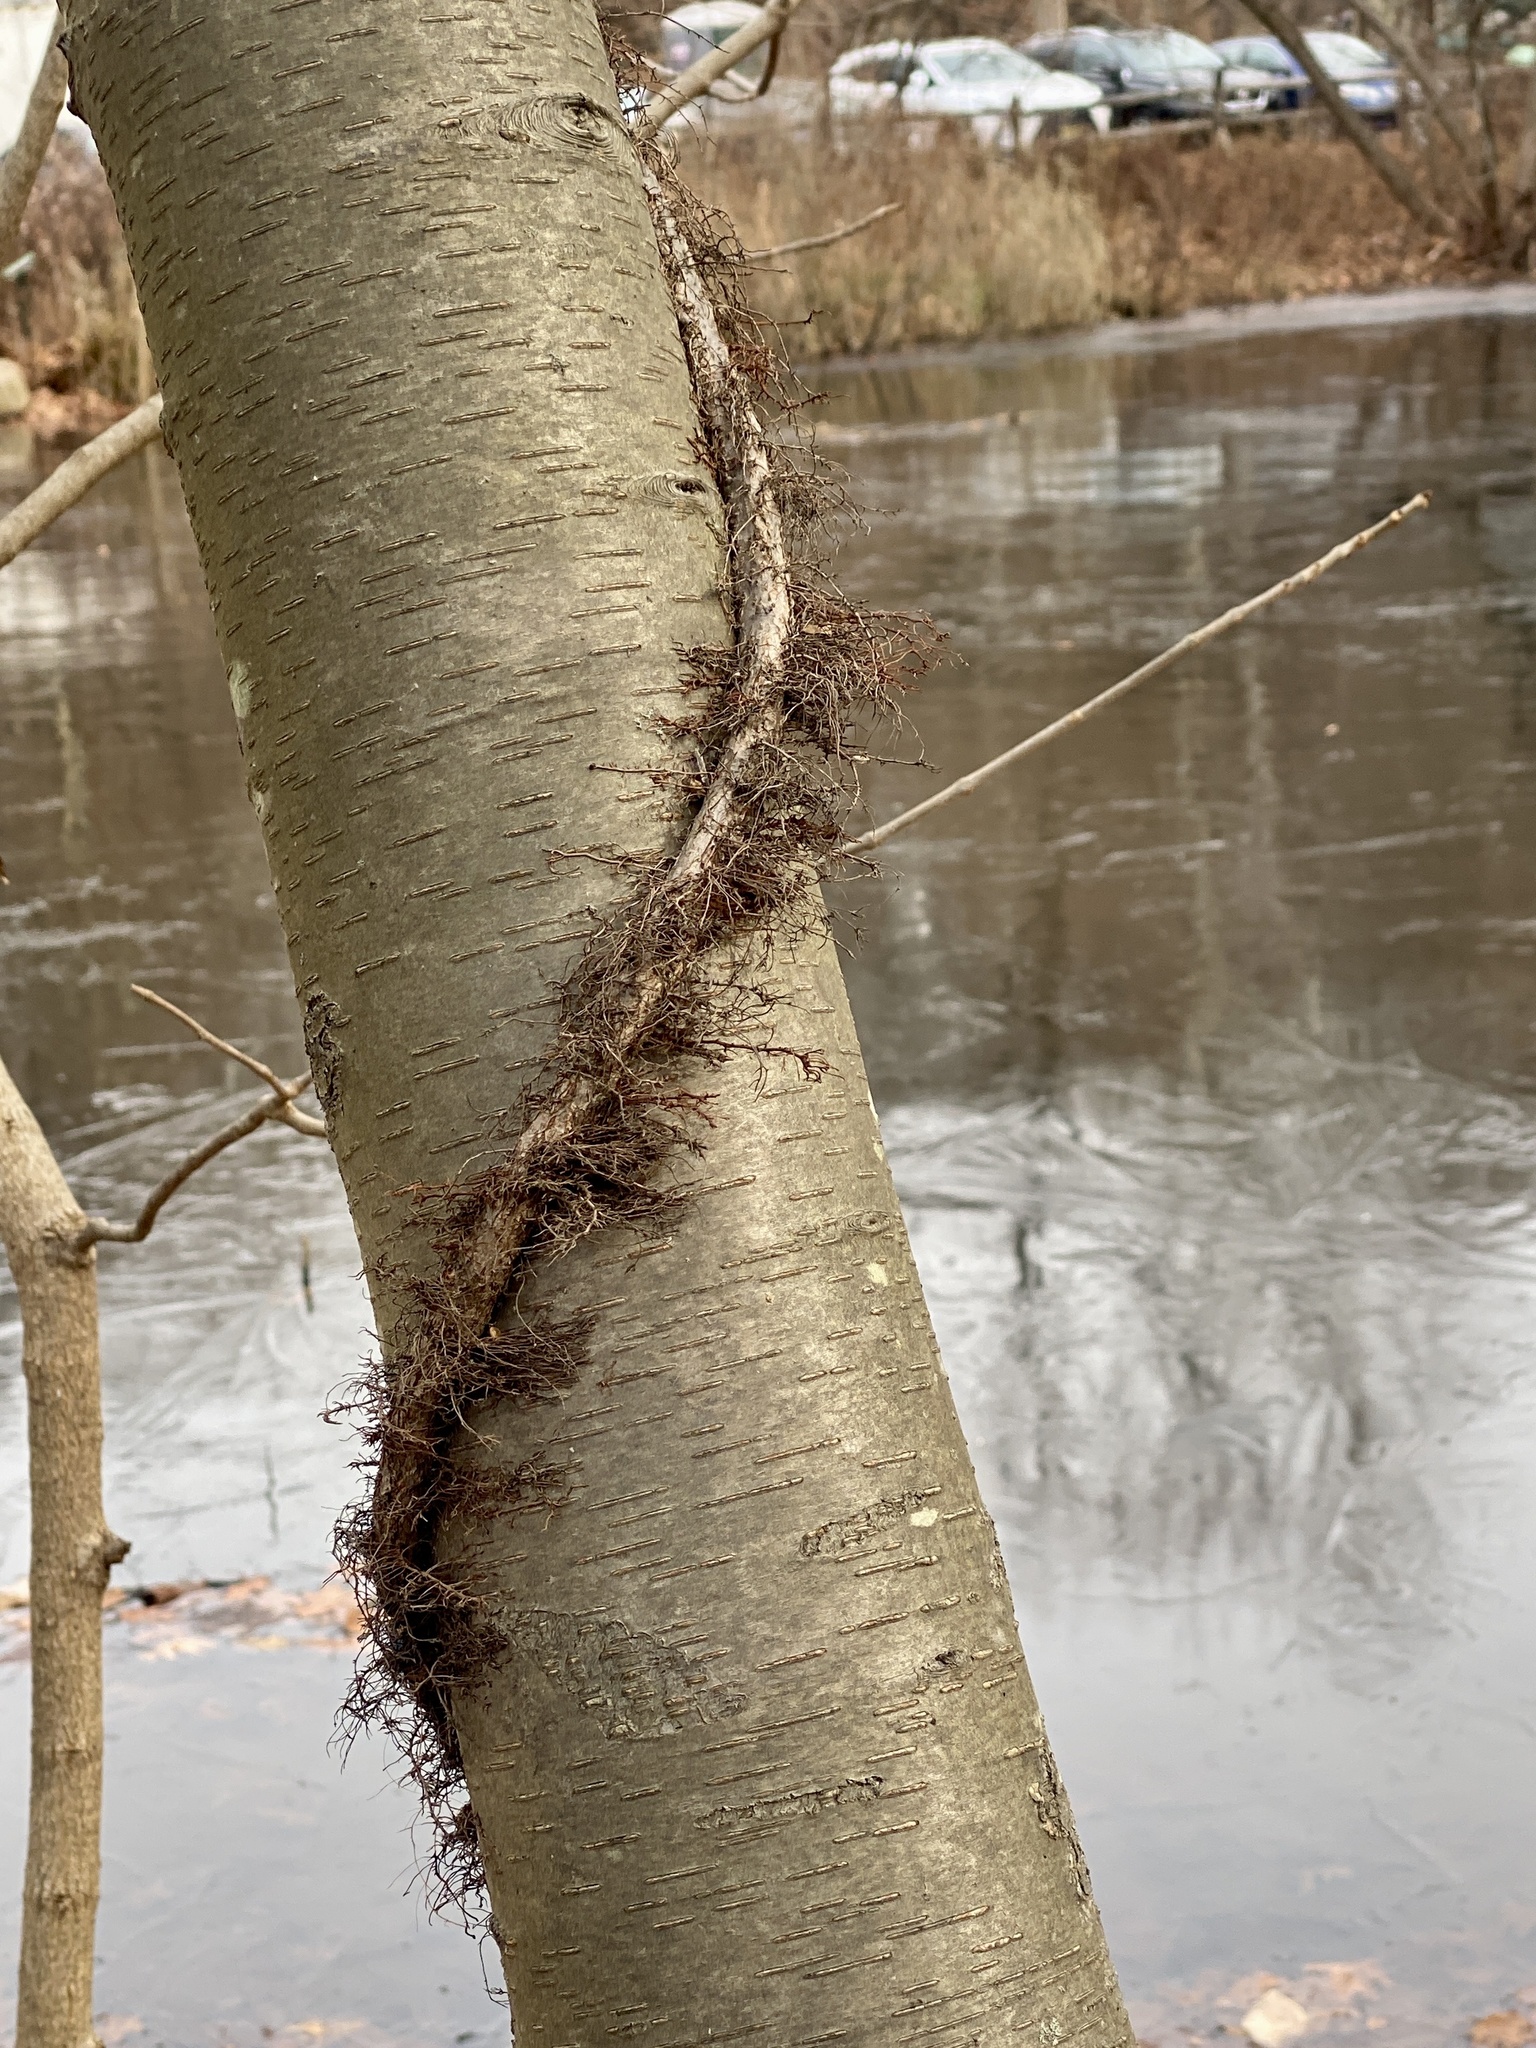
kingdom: Plantae
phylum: Tracheophyta
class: Magnoliopsida
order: Sapindales
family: Anacardiaceae
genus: Toxicodendron
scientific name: Toxicodendron radicans
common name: Poison ivy
